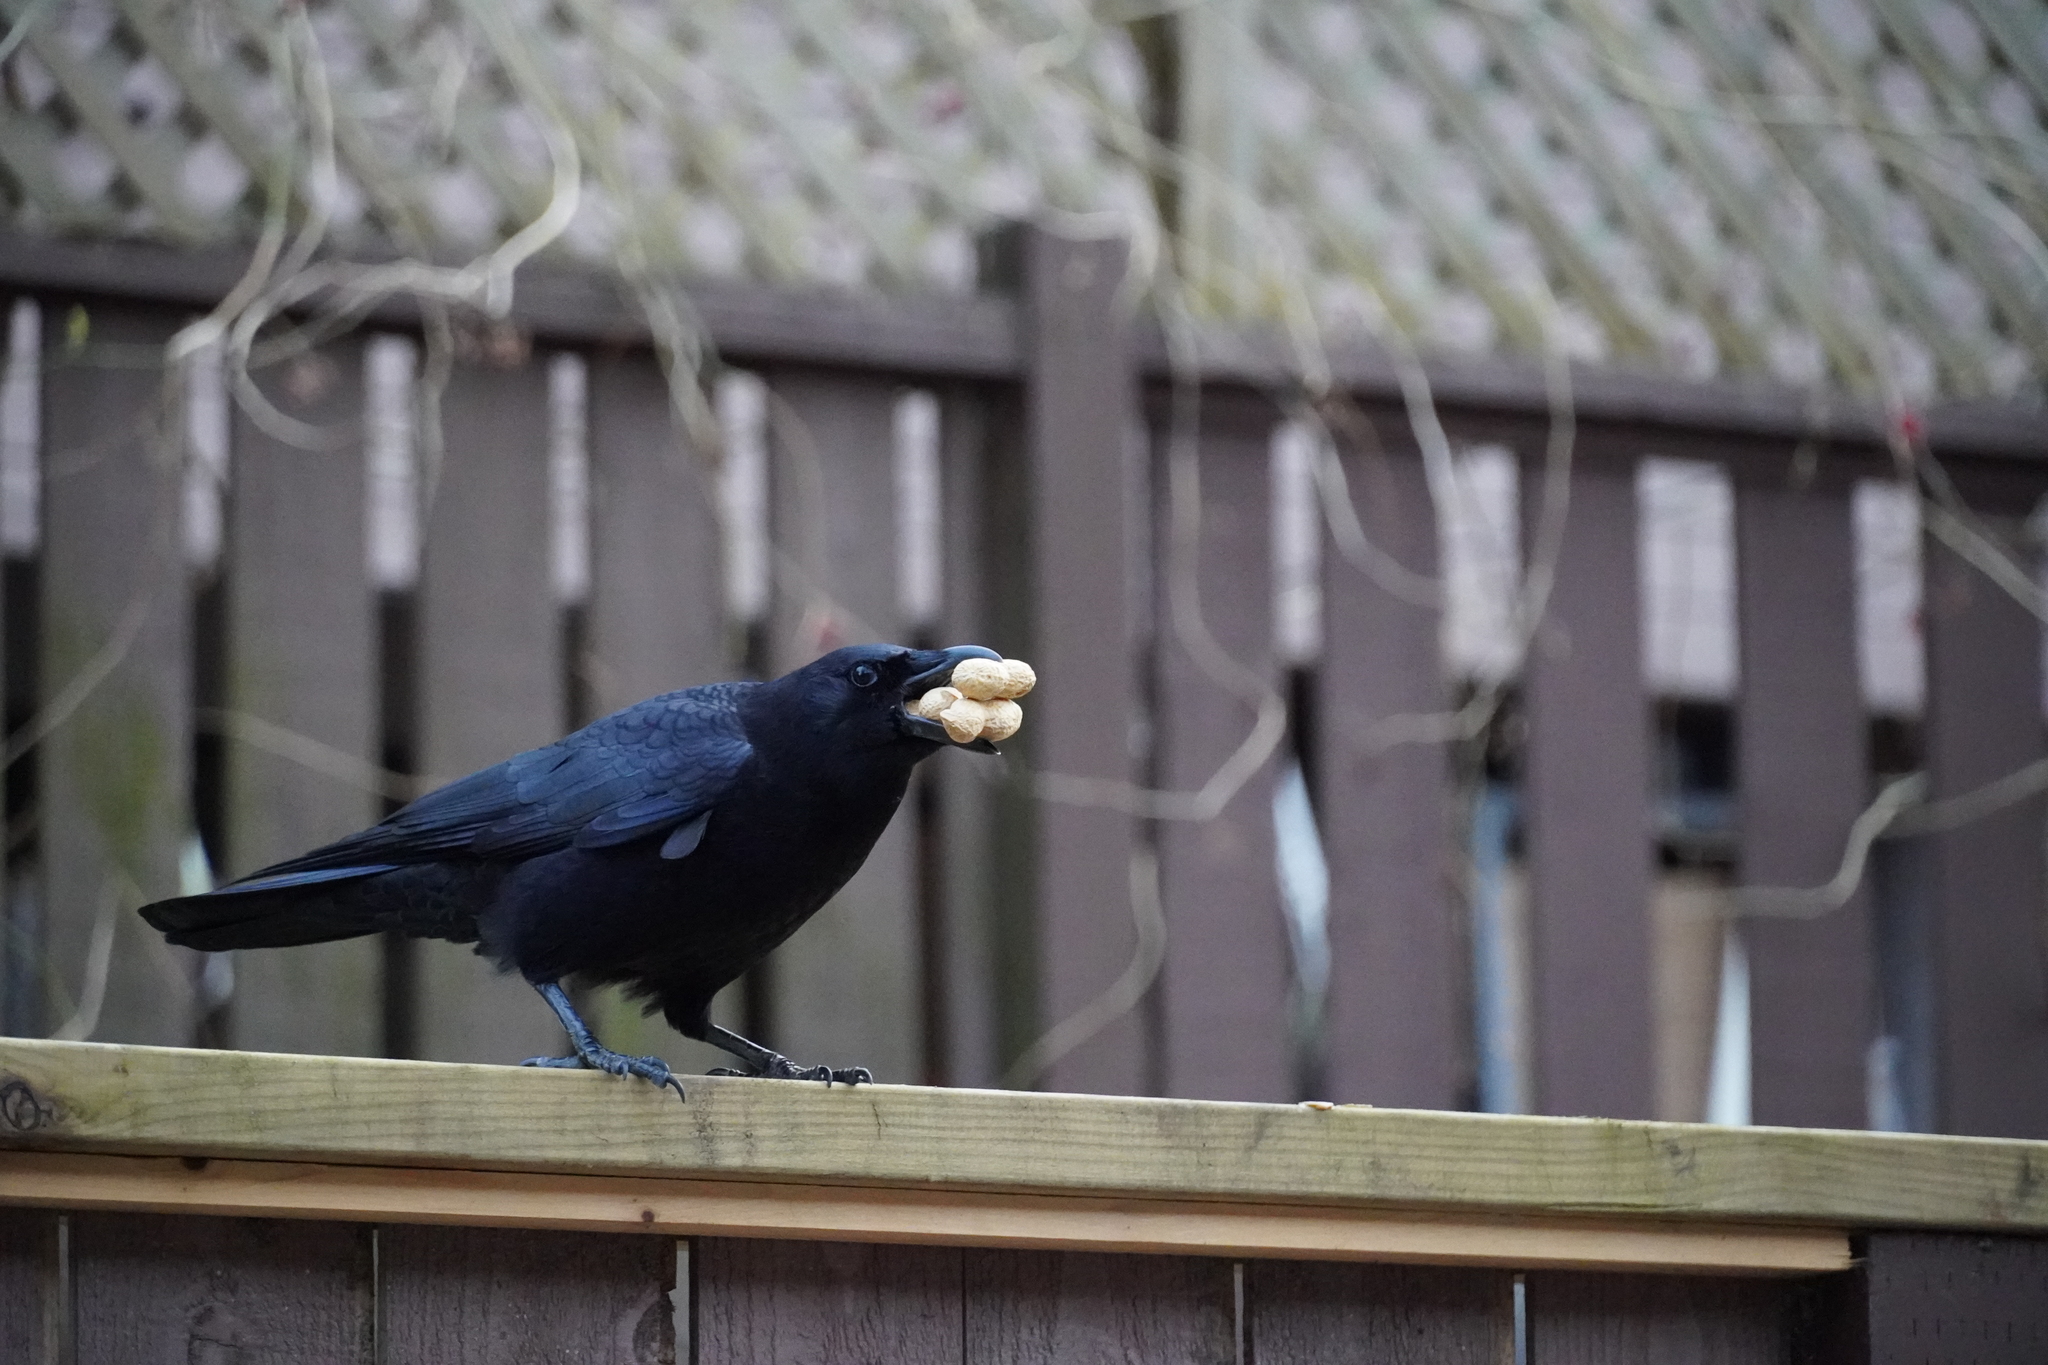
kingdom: Animalia
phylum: Chordata
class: Aves
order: Passeriformes
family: Corvidae
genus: Corvus
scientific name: Corvus brachyrhynchos
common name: American crow
